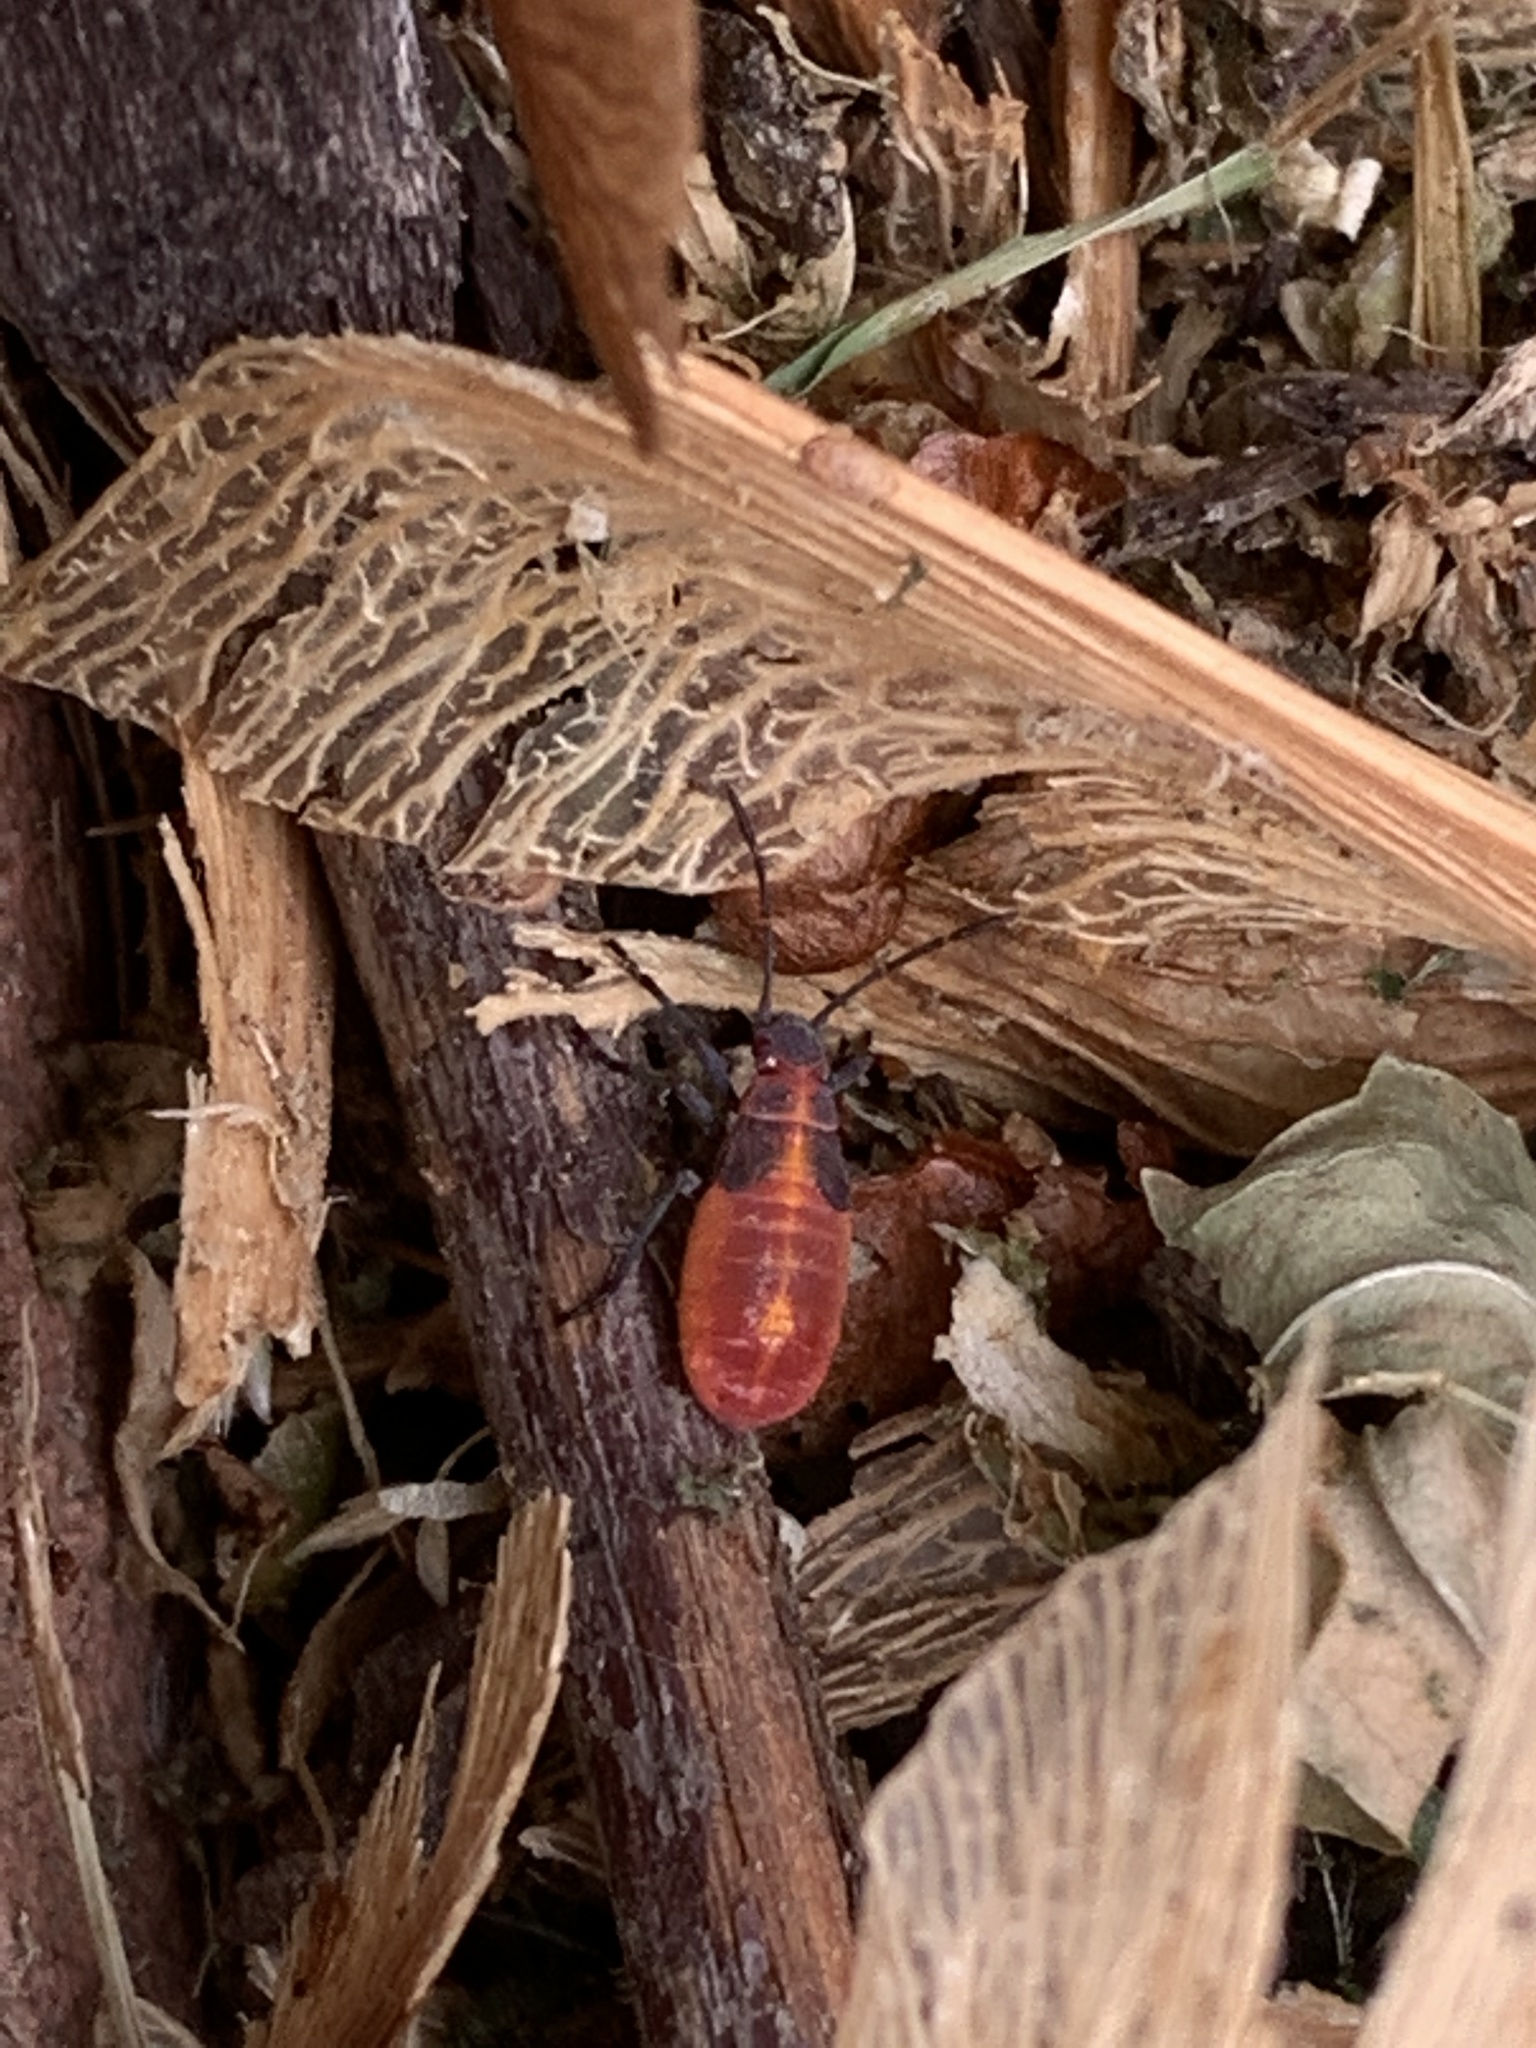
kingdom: Animalia
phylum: Arthropoda
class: Insecta
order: Hemiptera
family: Rhopalidae
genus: Boisea
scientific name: Boisea trivittata
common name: Boxelder bug
